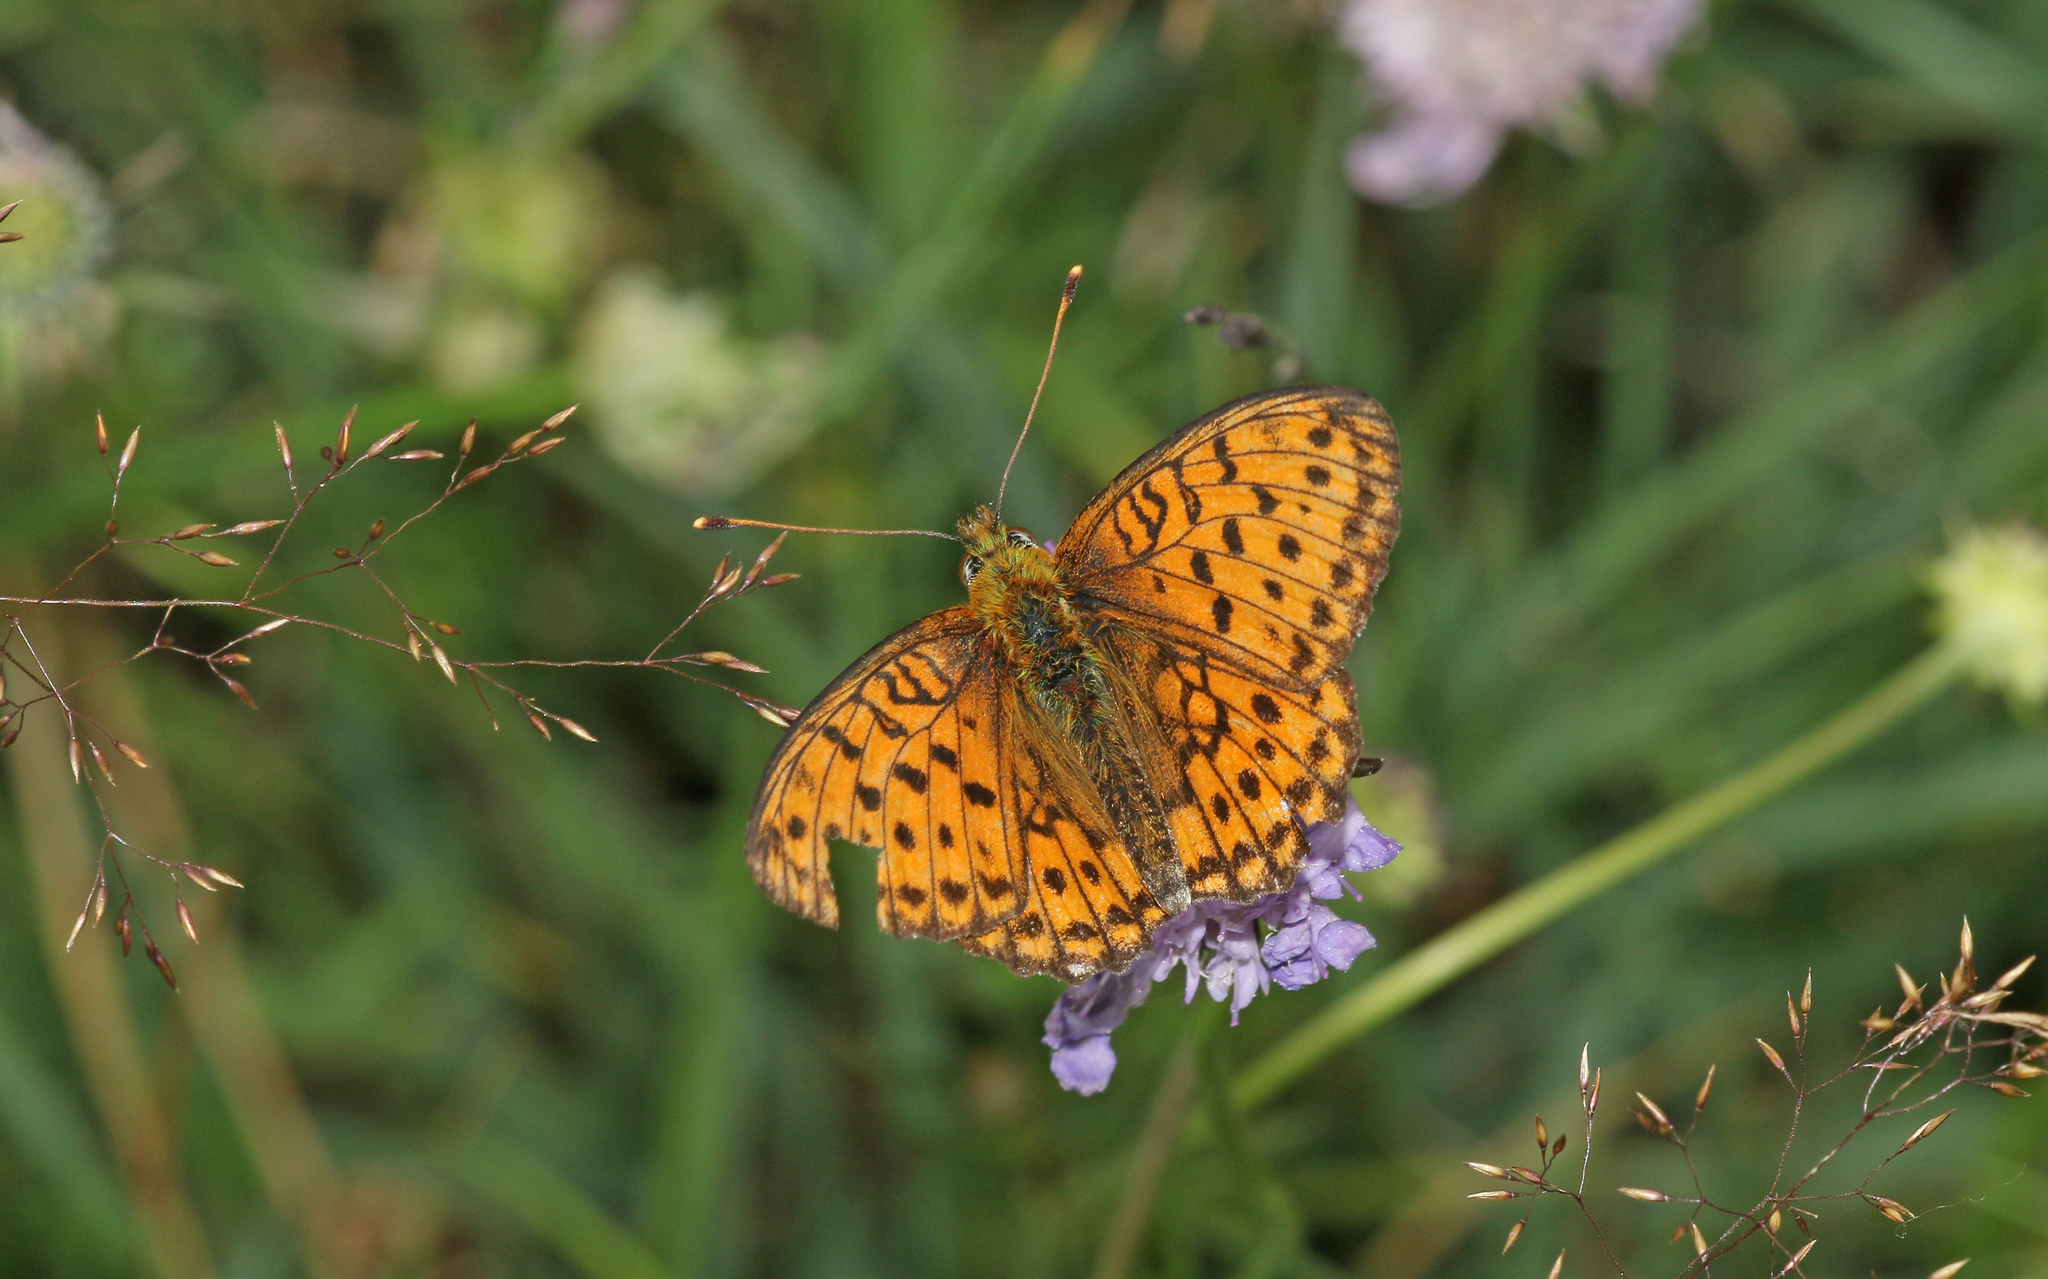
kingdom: Animalia
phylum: Arthropoda
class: Insecta
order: Lepidoptera
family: Nymphalidae
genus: Brenthis
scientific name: Brenthis ino
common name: Lesser marbled fritillary
